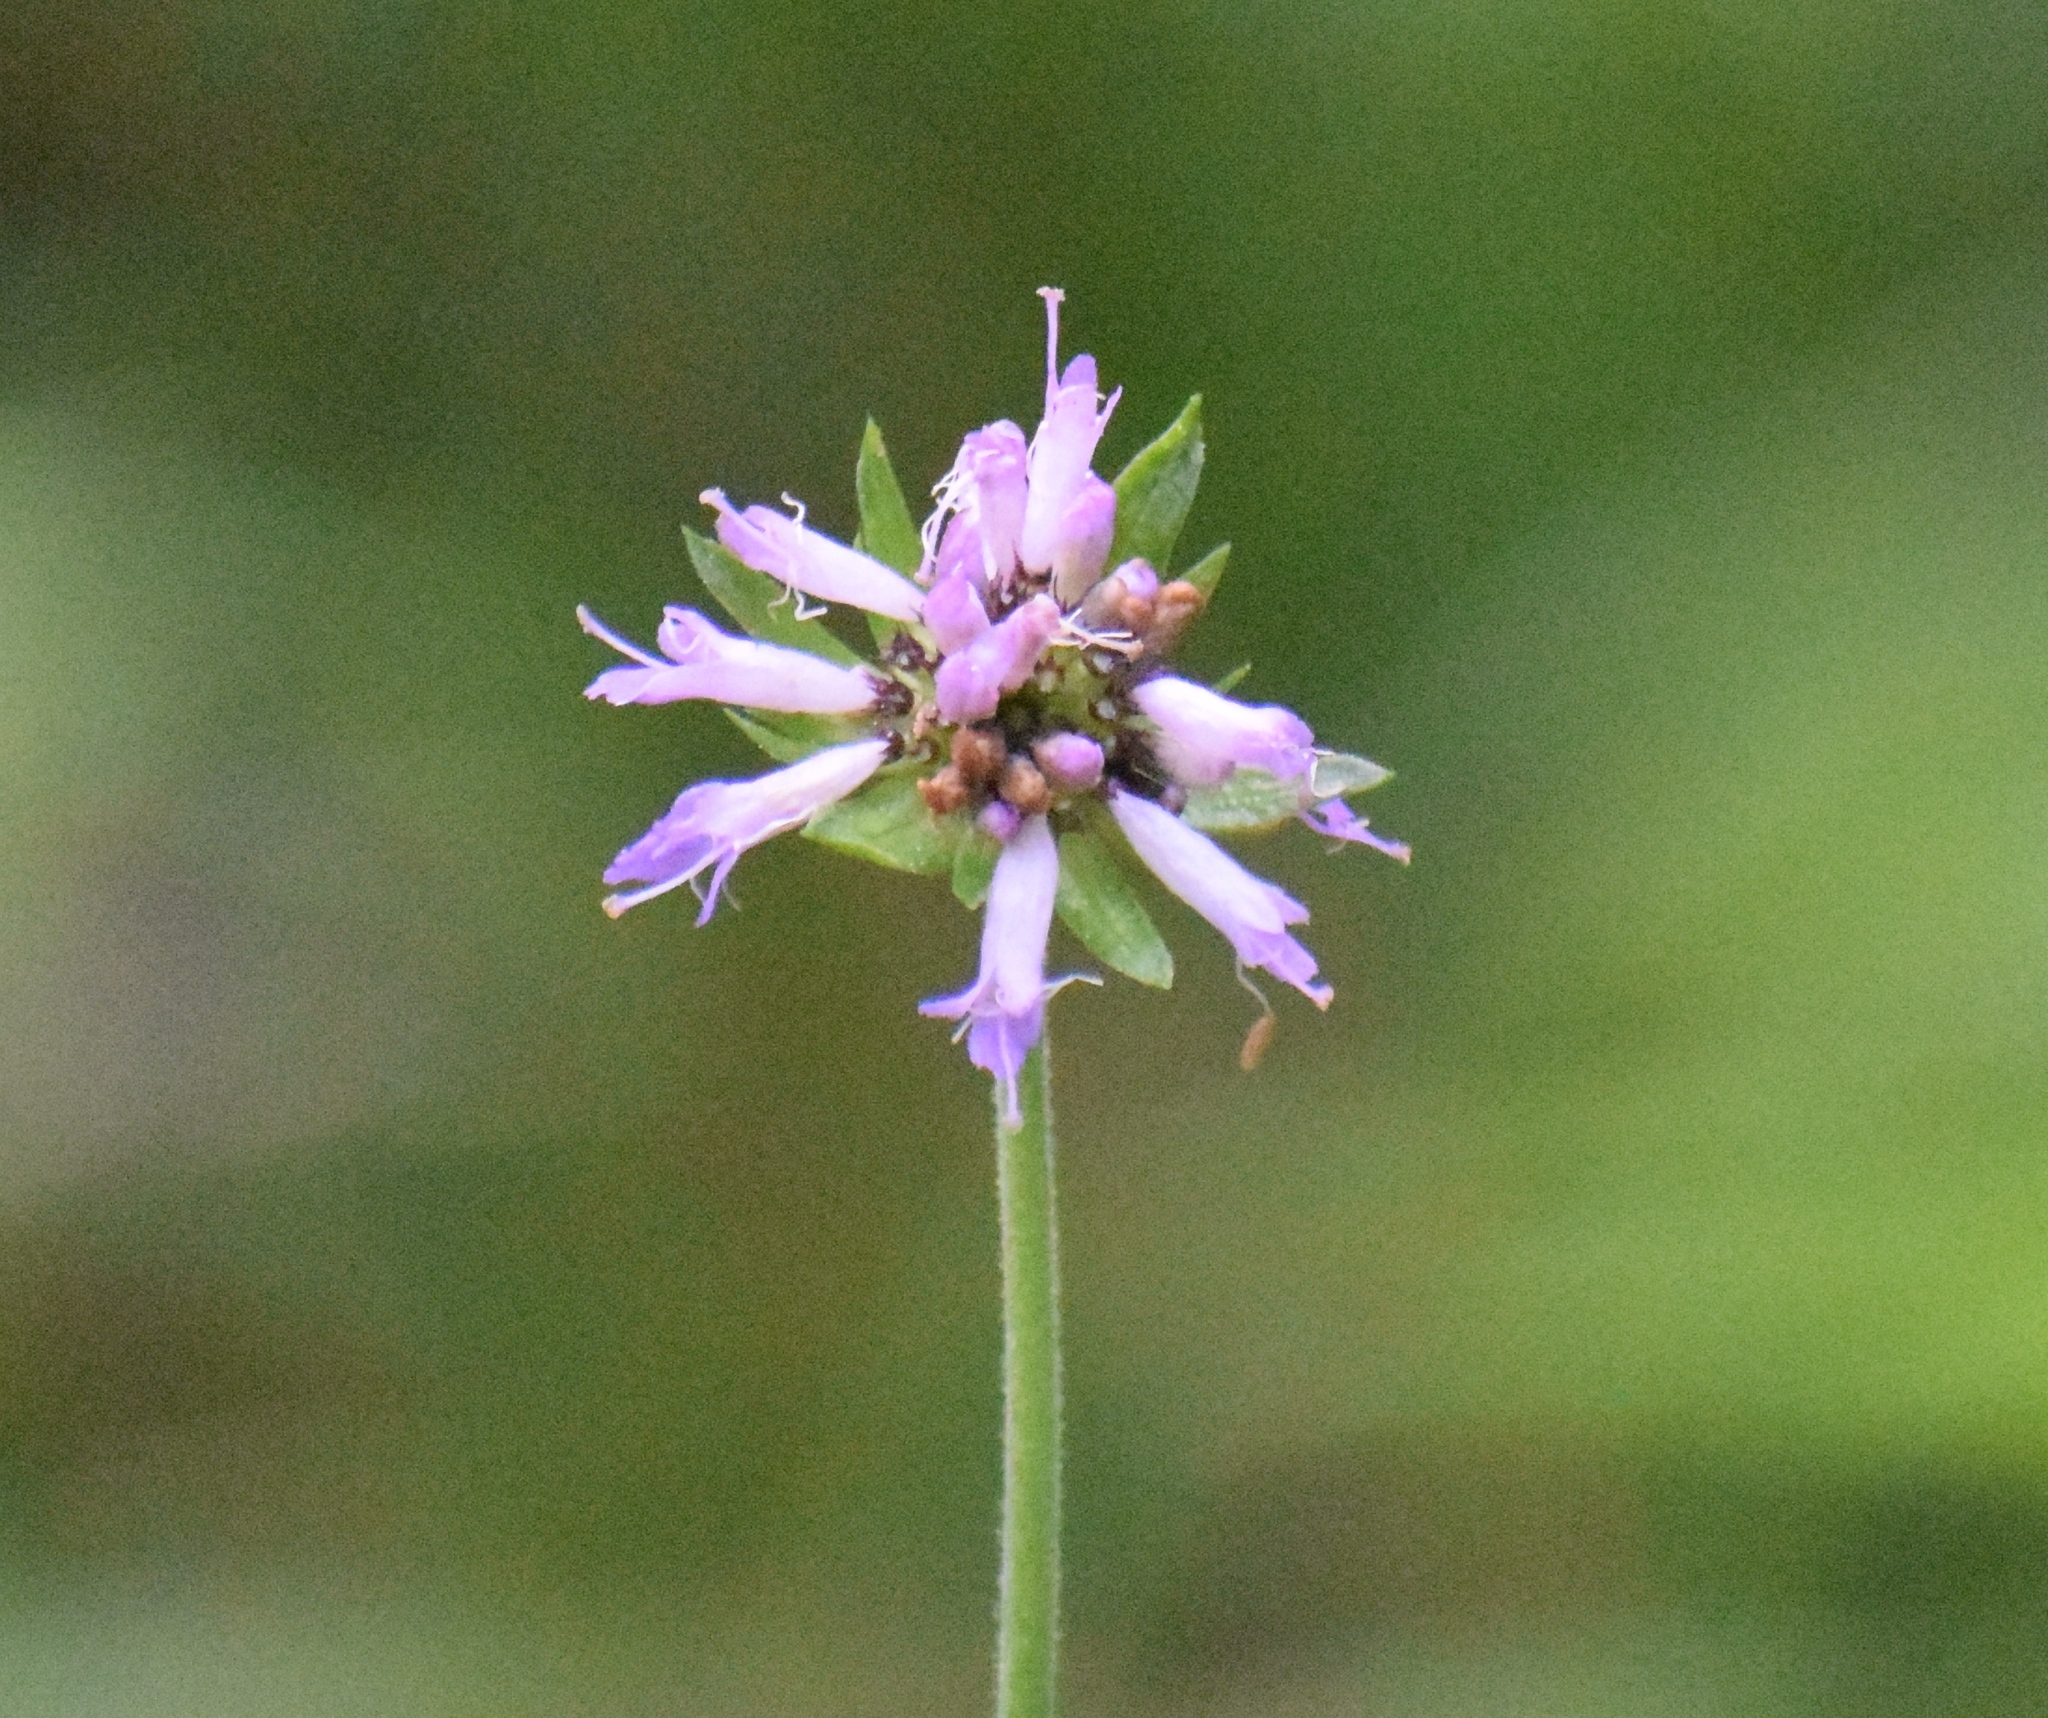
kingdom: Plantae
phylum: Tracheophyta
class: Magnoliopsida
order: Dipsacales
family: Caprifoliaceae
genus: Succisa
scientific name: Succisa pratensis
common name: Devil's-bit
